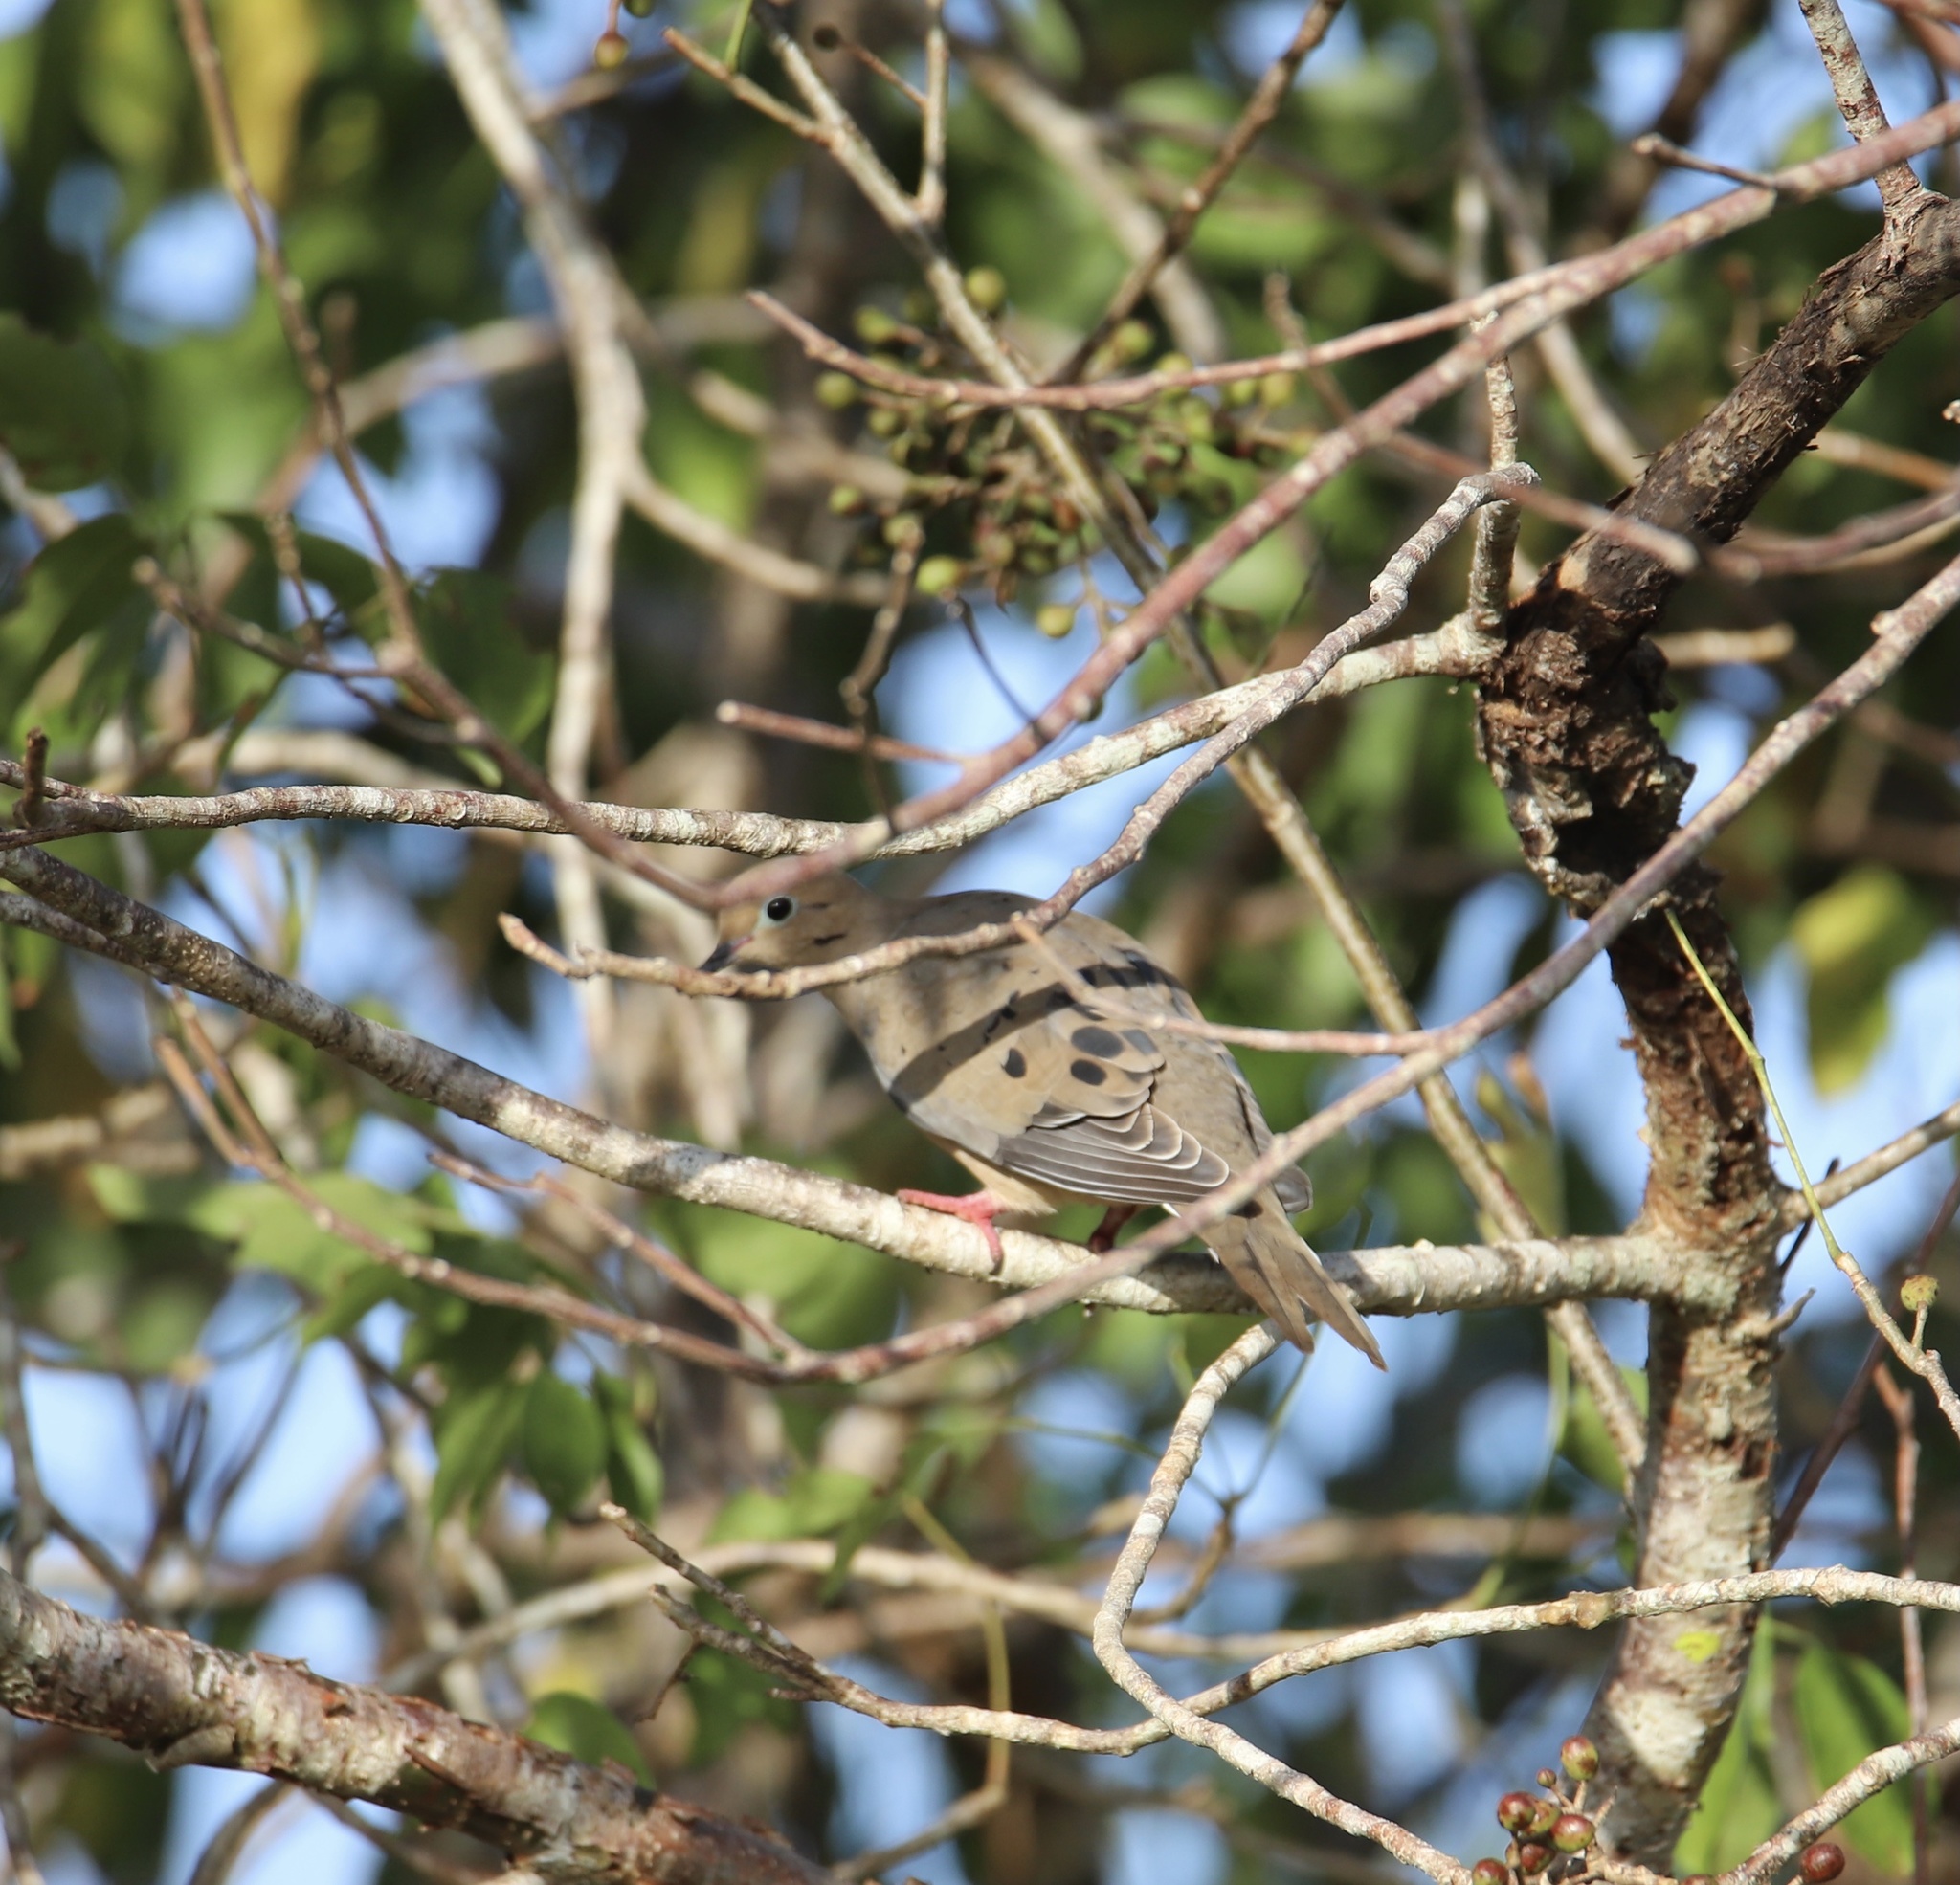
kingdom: Animalia
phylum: Chordata
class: Aves
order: Columbiformes
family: Columbidae
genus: Zenaida
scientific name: Zenaida macroura
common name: Mourning dove
